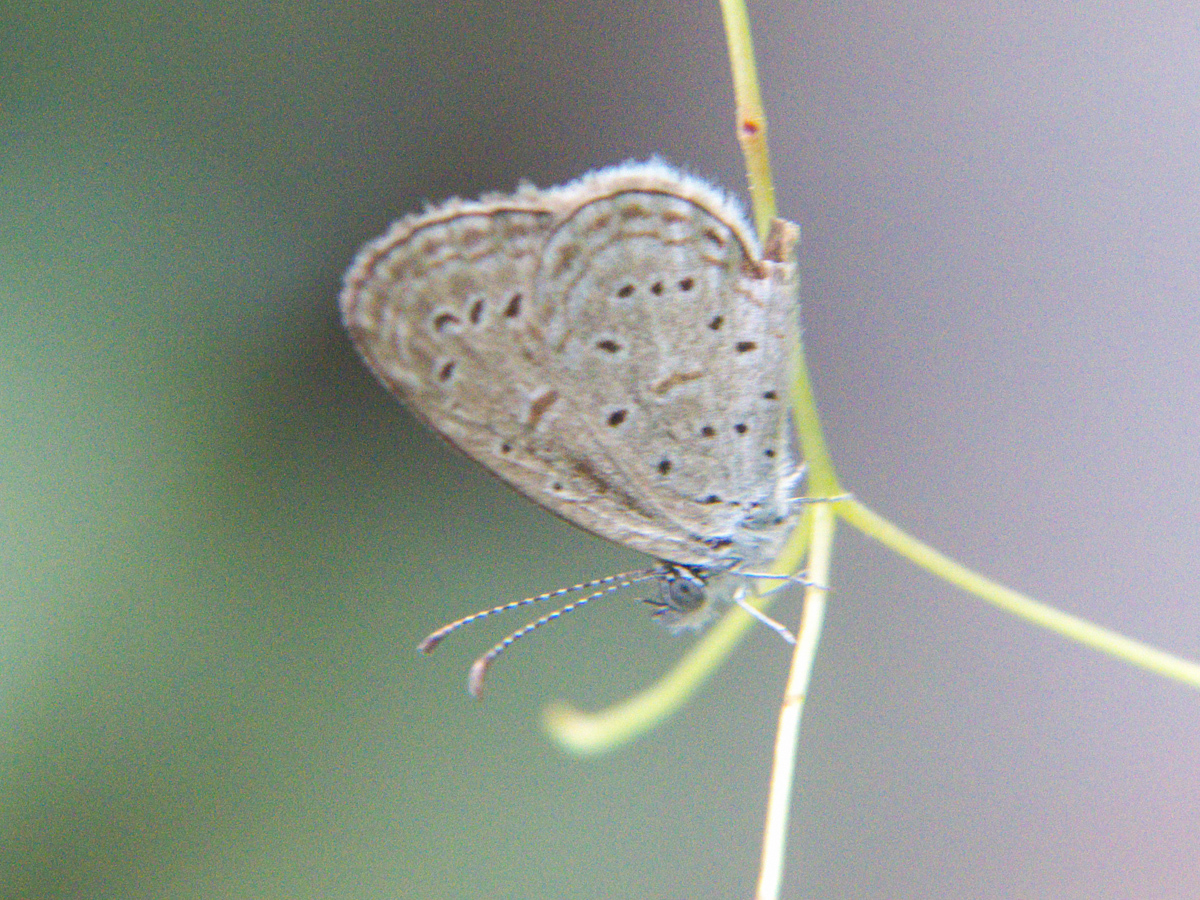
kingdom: Animalia
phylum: Arthropoda
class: Insecta
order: Lepidoptera
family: Lycaenidae
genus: Zizula
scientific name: Zizula hylax
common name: Gaika blue
